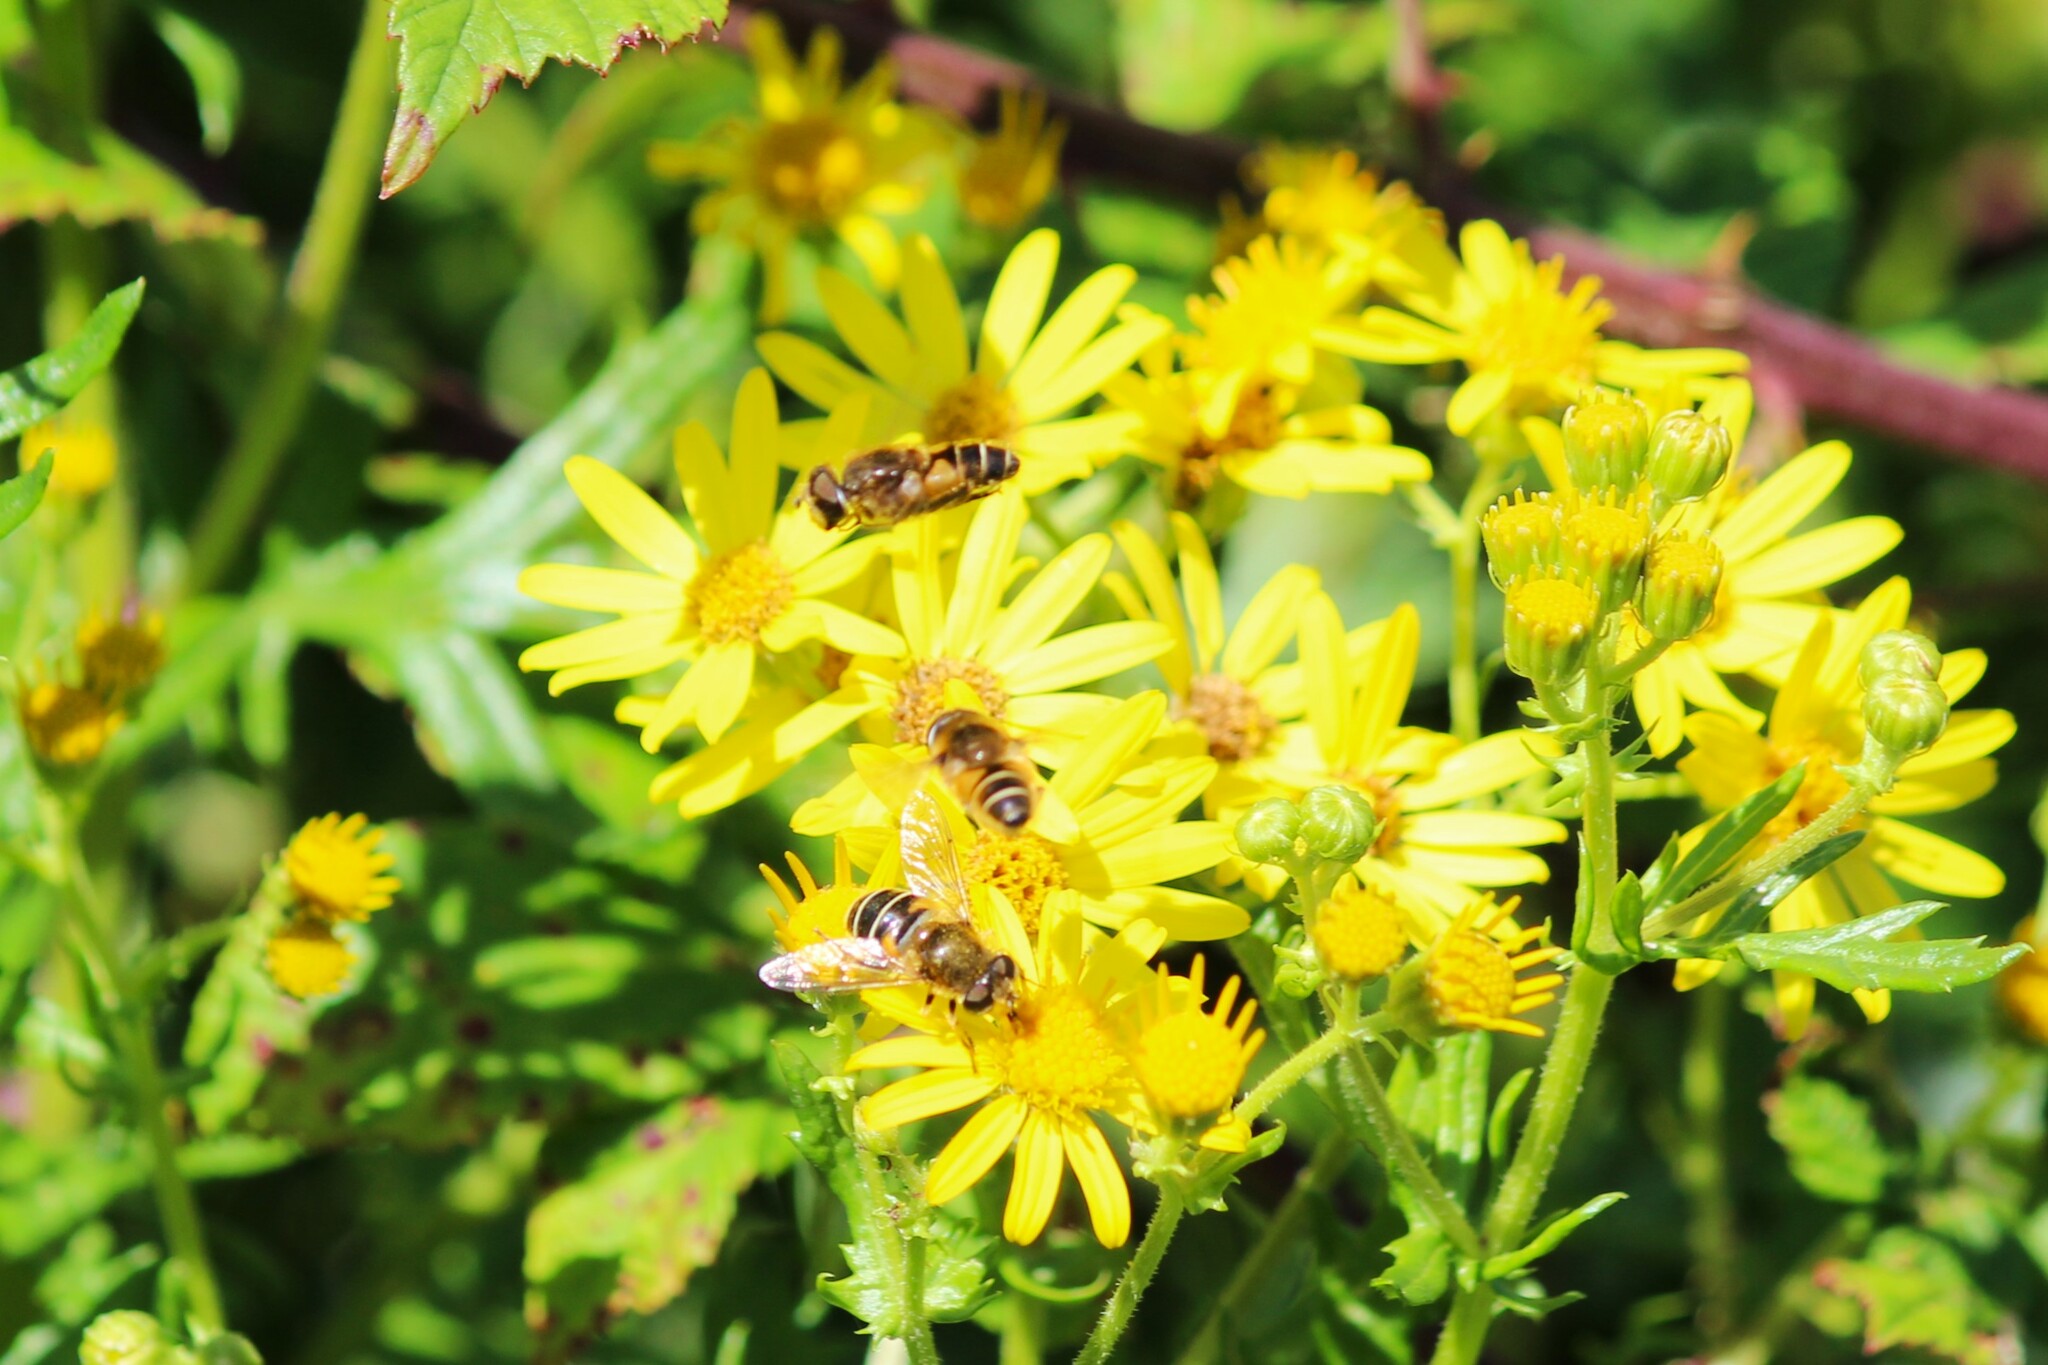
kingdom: Animalia
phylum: Arthropoda
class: Insecta
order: Diptera
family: Syrphidae
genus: Eristalis
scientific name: Eristalis nemorum
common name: Orange-spined drone fly
